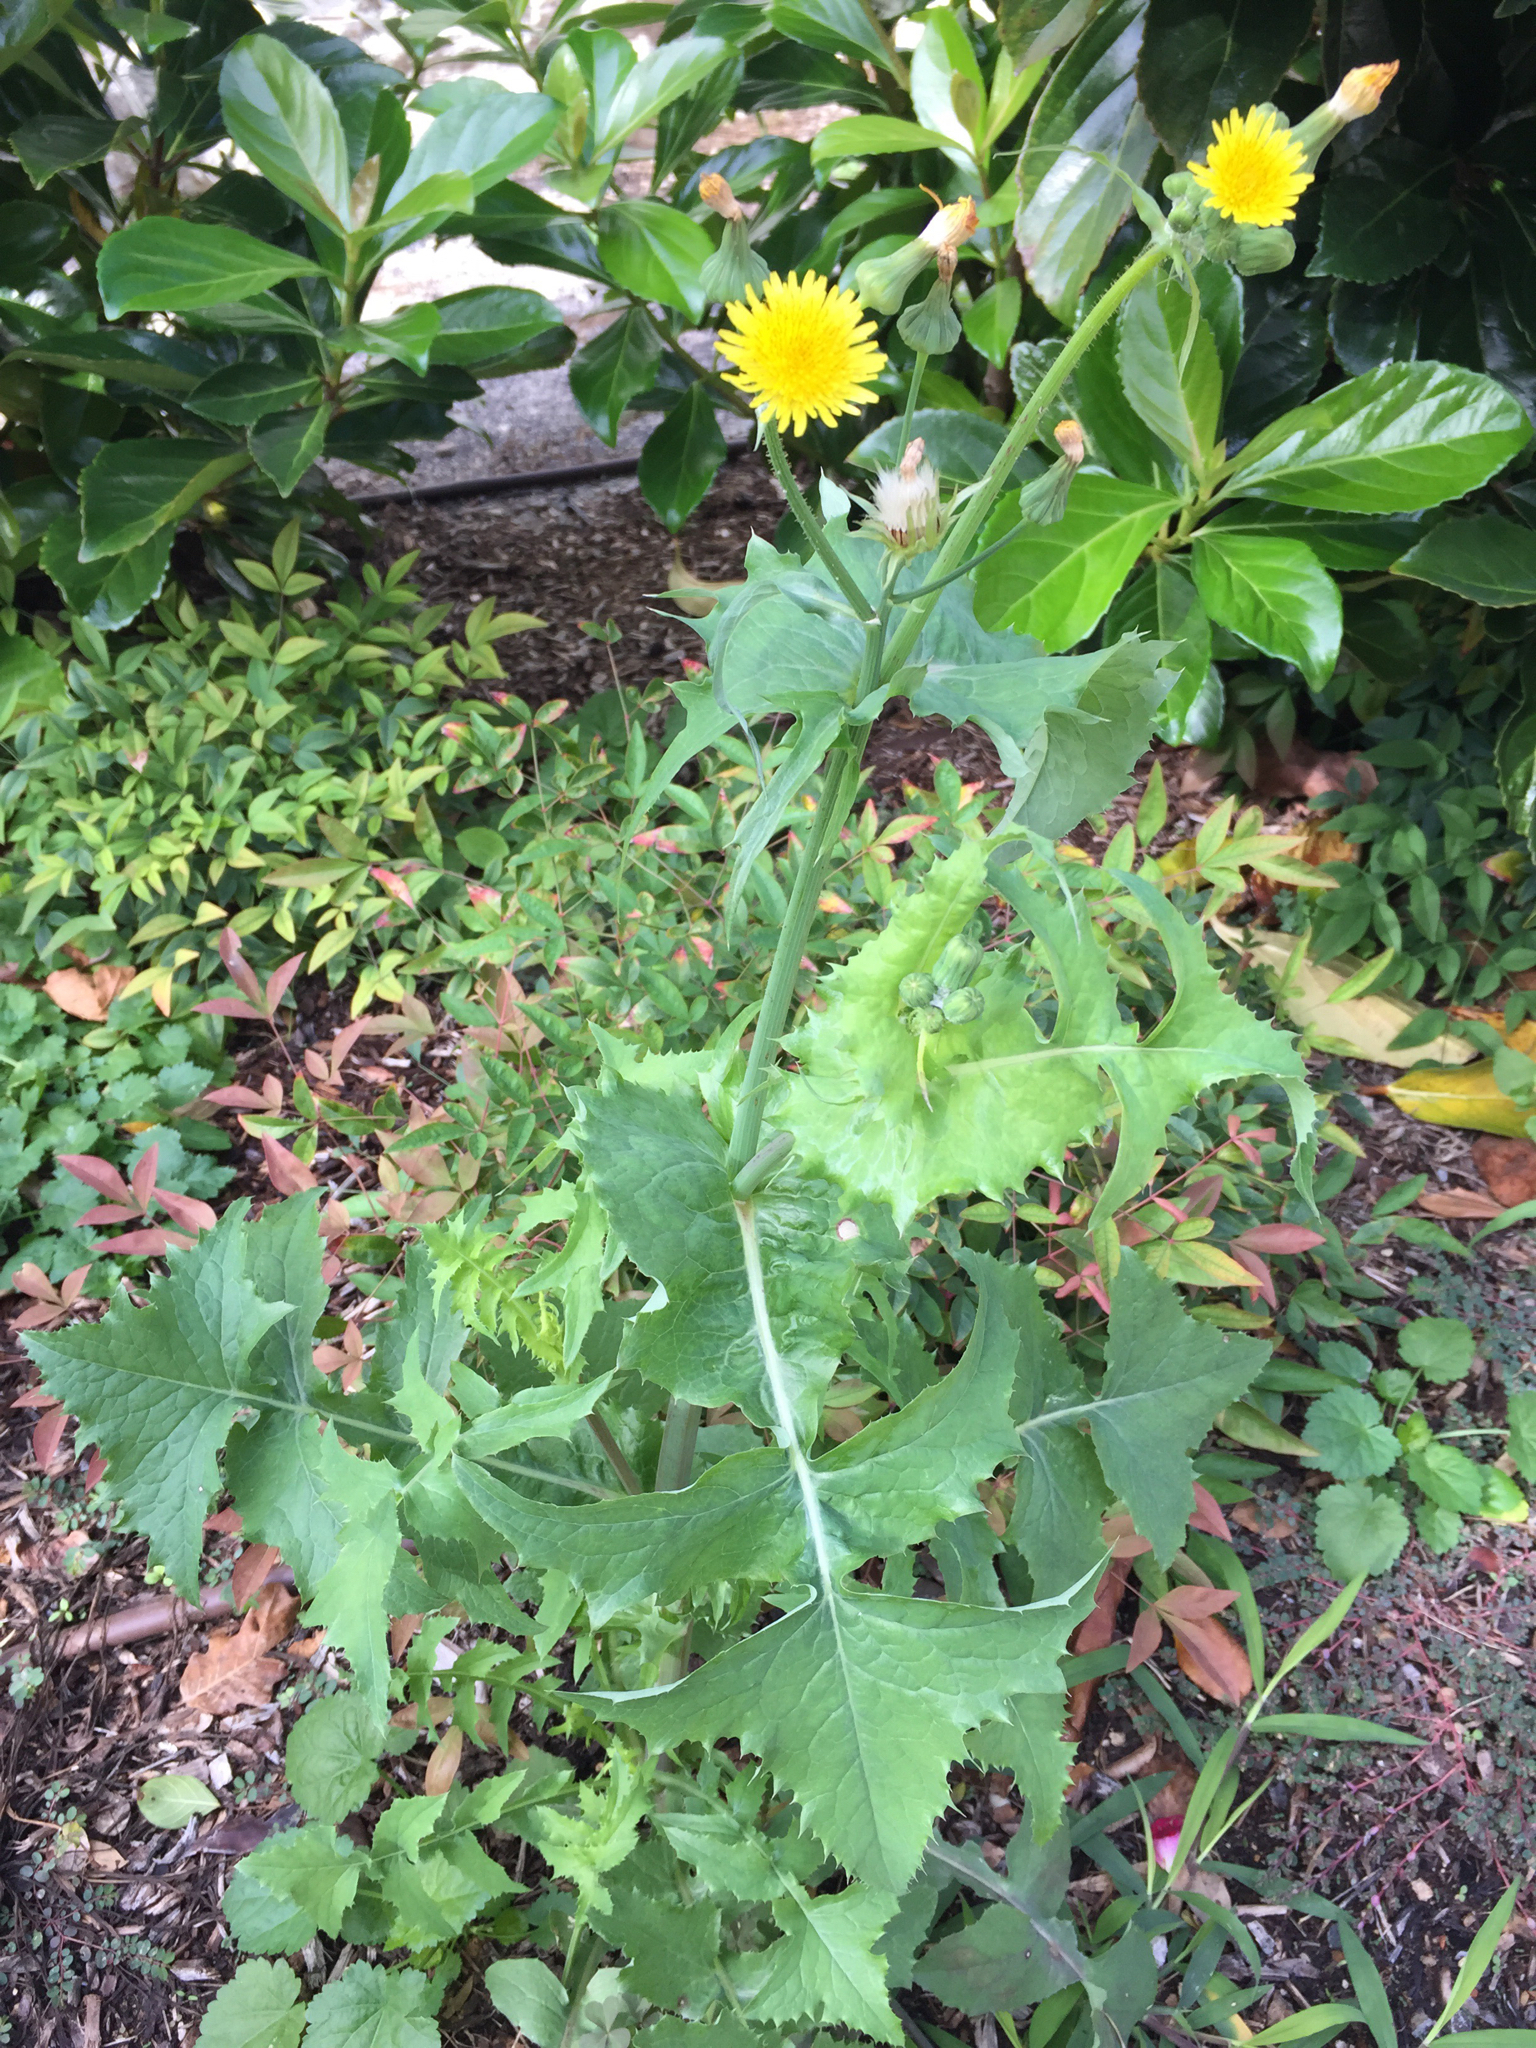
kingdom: Plantae
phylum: Tracheophyta
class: Magnoliopsida
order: Asterales
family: Asteraceae
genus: Sonchus
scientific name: Sonchus oleraceus
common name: Common sowthistle
